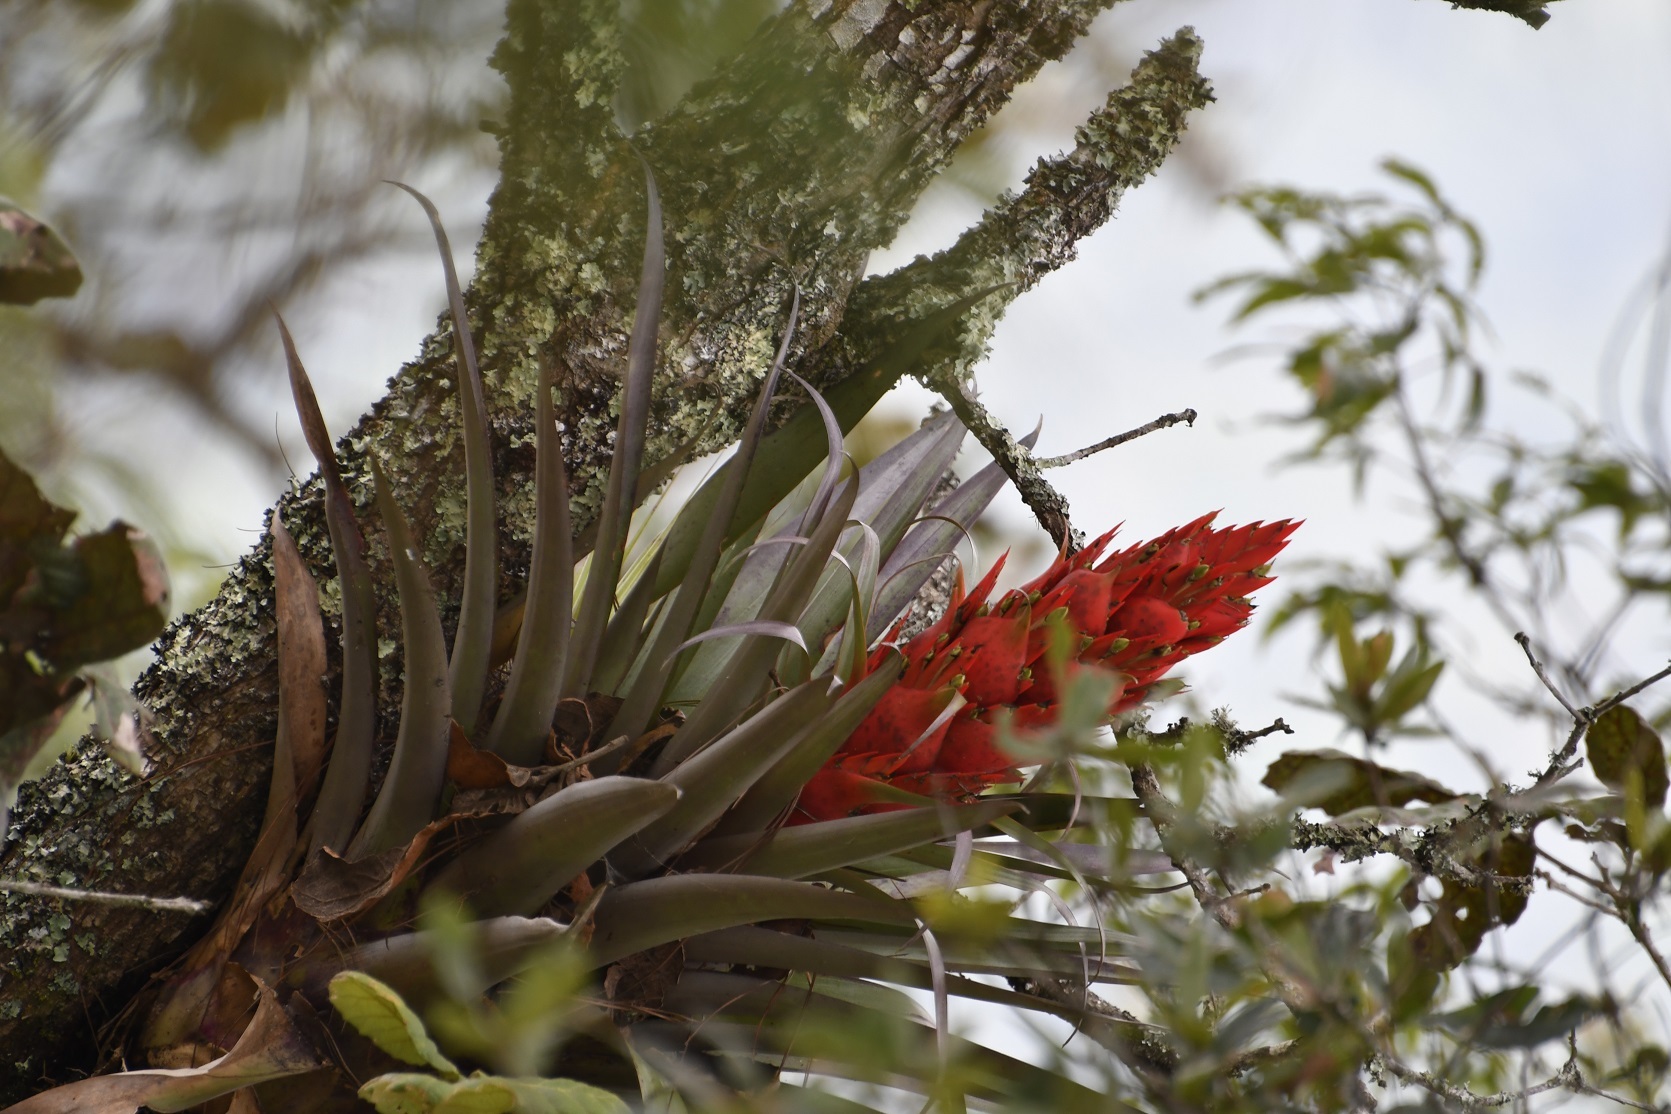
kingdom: Plantae
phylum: Tracheophyta
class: Liliopsida
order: Poales
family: Bromeliaceae
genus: Tillandsia
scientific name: Tillandsia ponderosa
